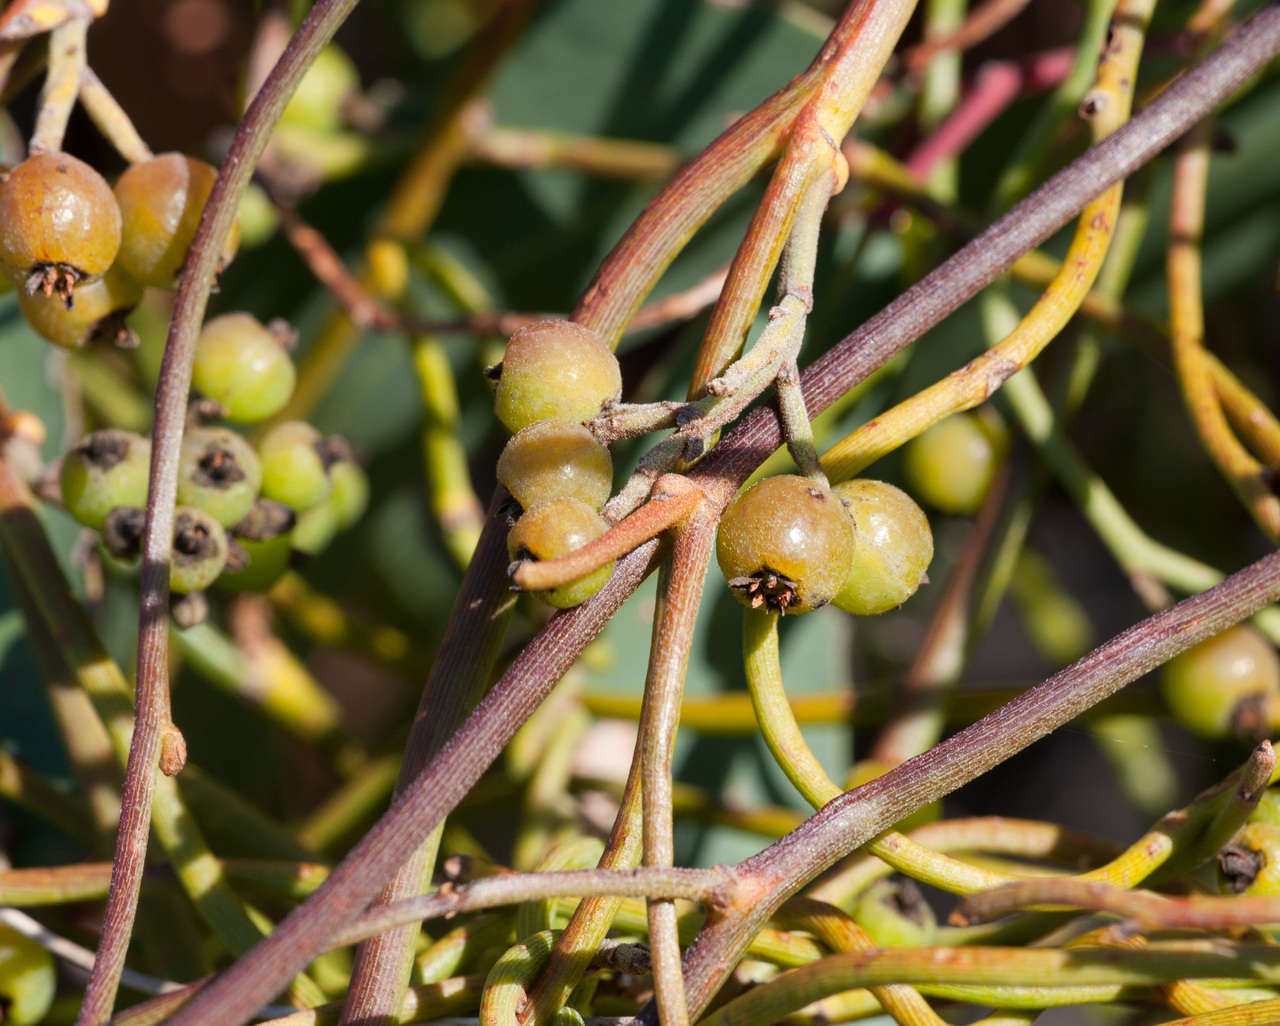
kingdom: Plantae
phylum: Tracheophyta
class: Magnoliopsida
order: Laurales
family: Lauraceae
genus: Cassytha
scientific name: Cassytha melantha
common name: Mallee stranglevine
